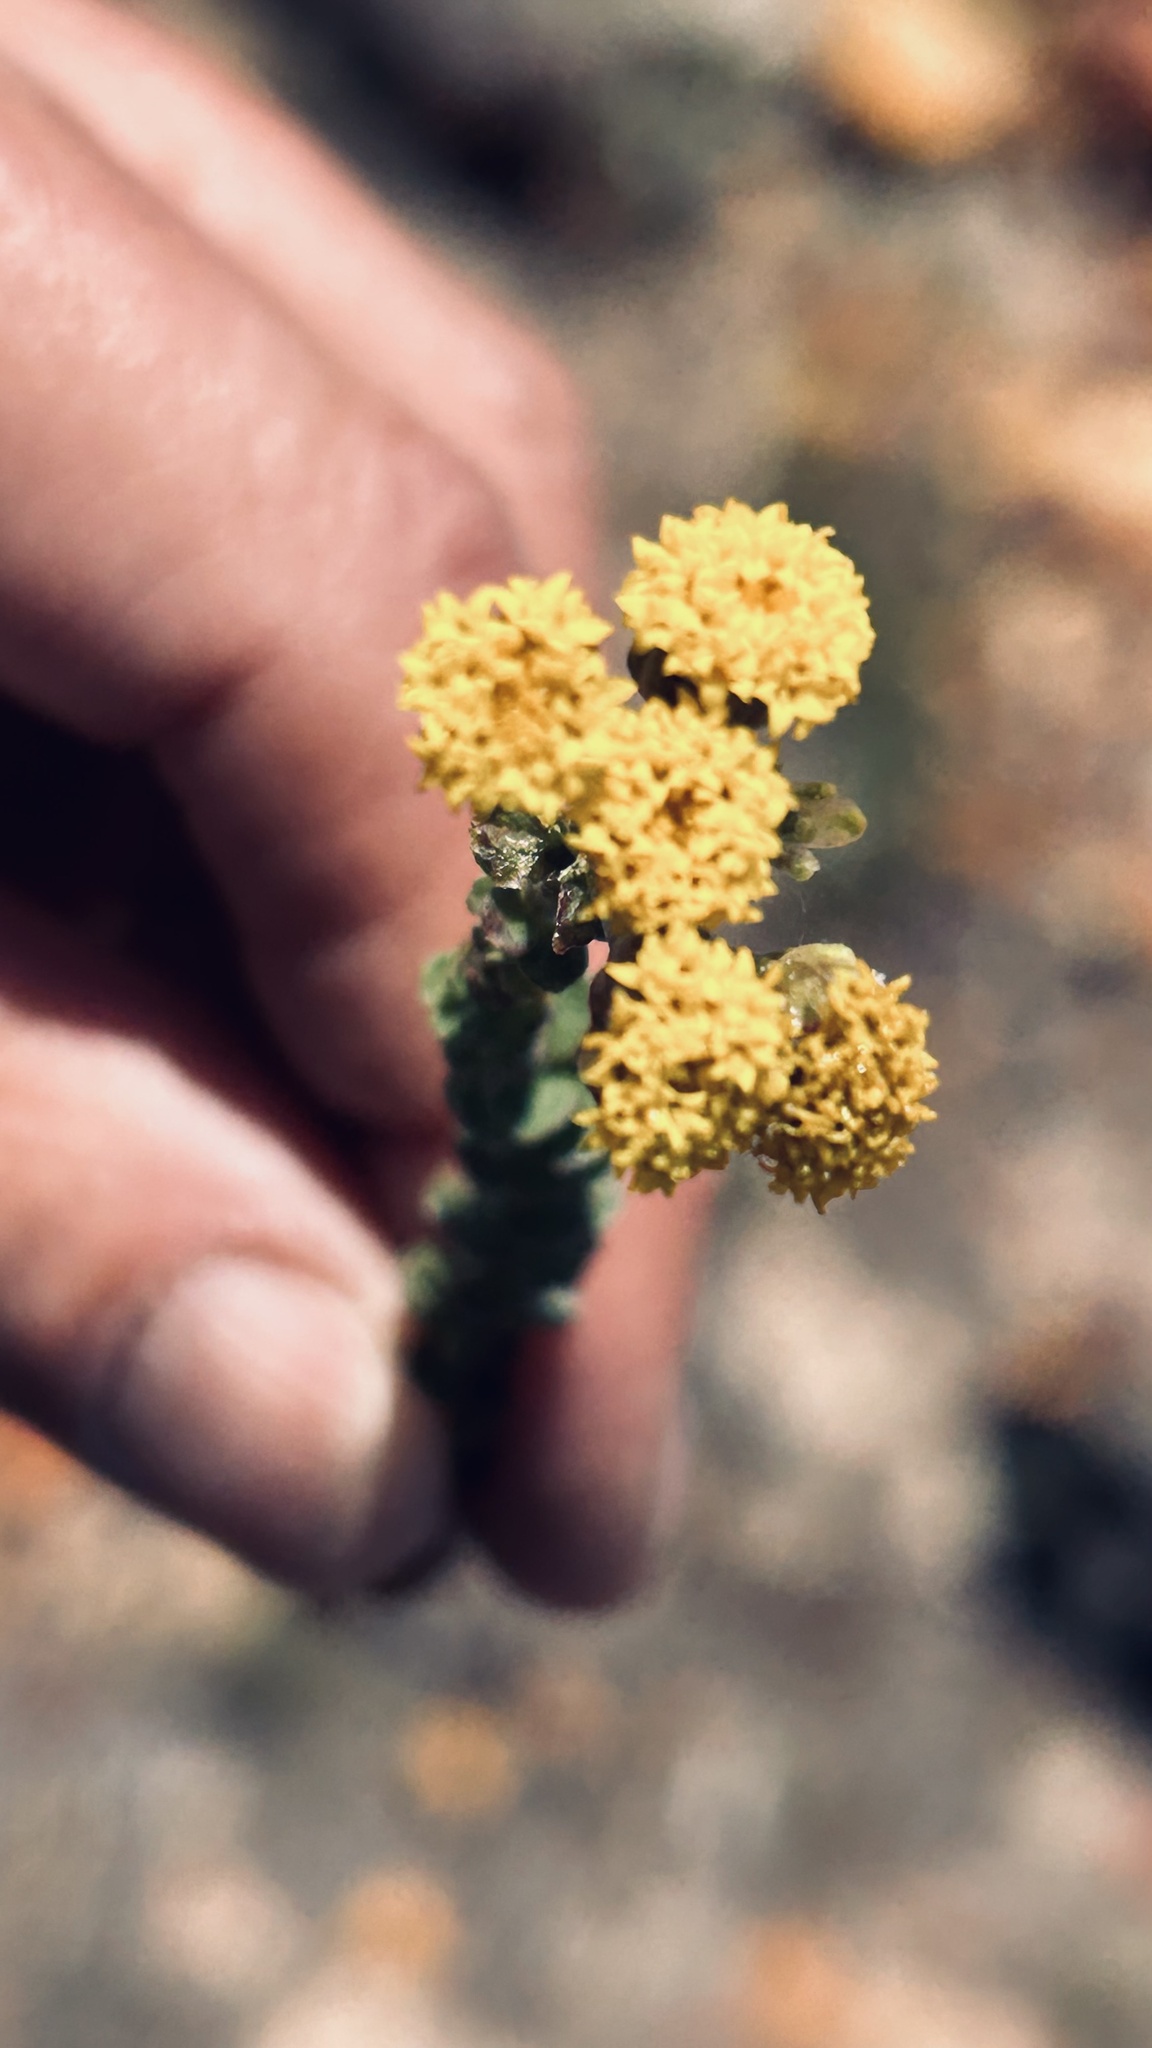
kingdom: Plantae
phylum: Tracheophyta
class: Magnoliopsida
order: Asterales
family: Asteraceae
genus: Athanasia
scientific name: Athanasia quinquedentata
